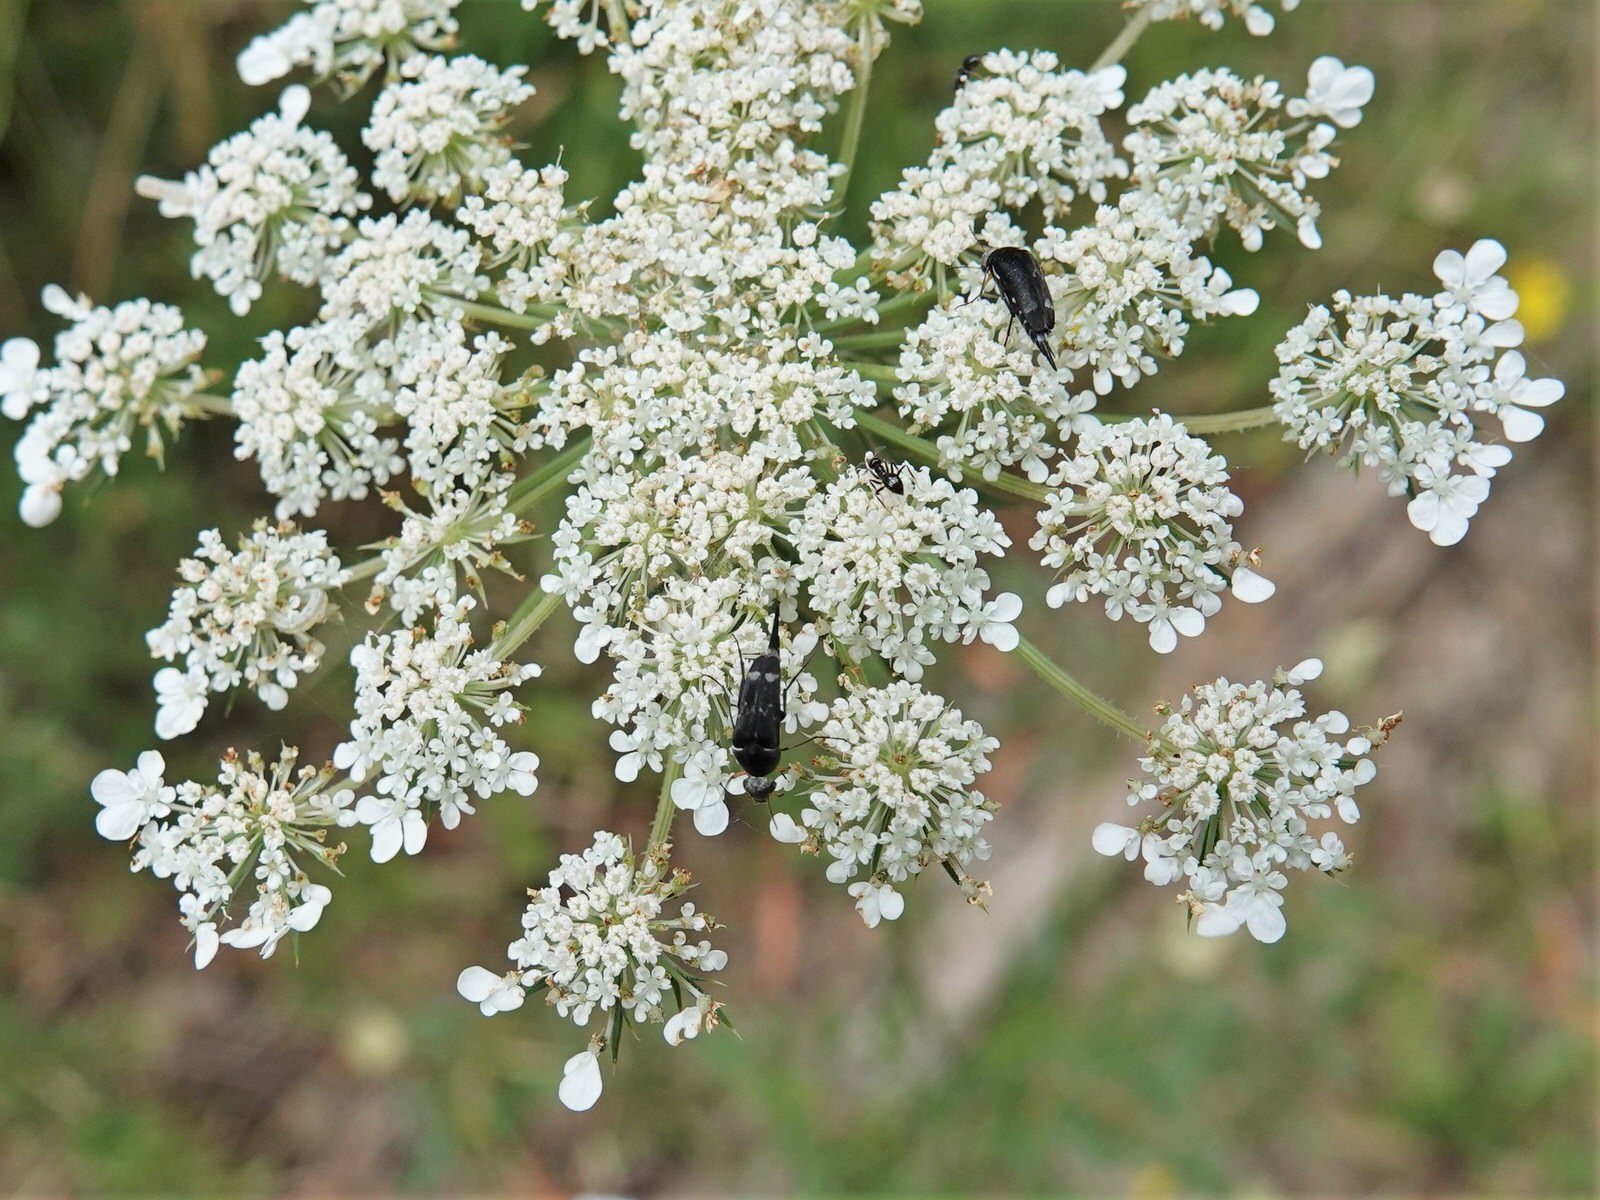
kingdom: Animalia
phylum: Arthropoda
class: Insecta
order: Coleoptera
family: Mordellidae
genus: Mordella
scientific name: Mordella
